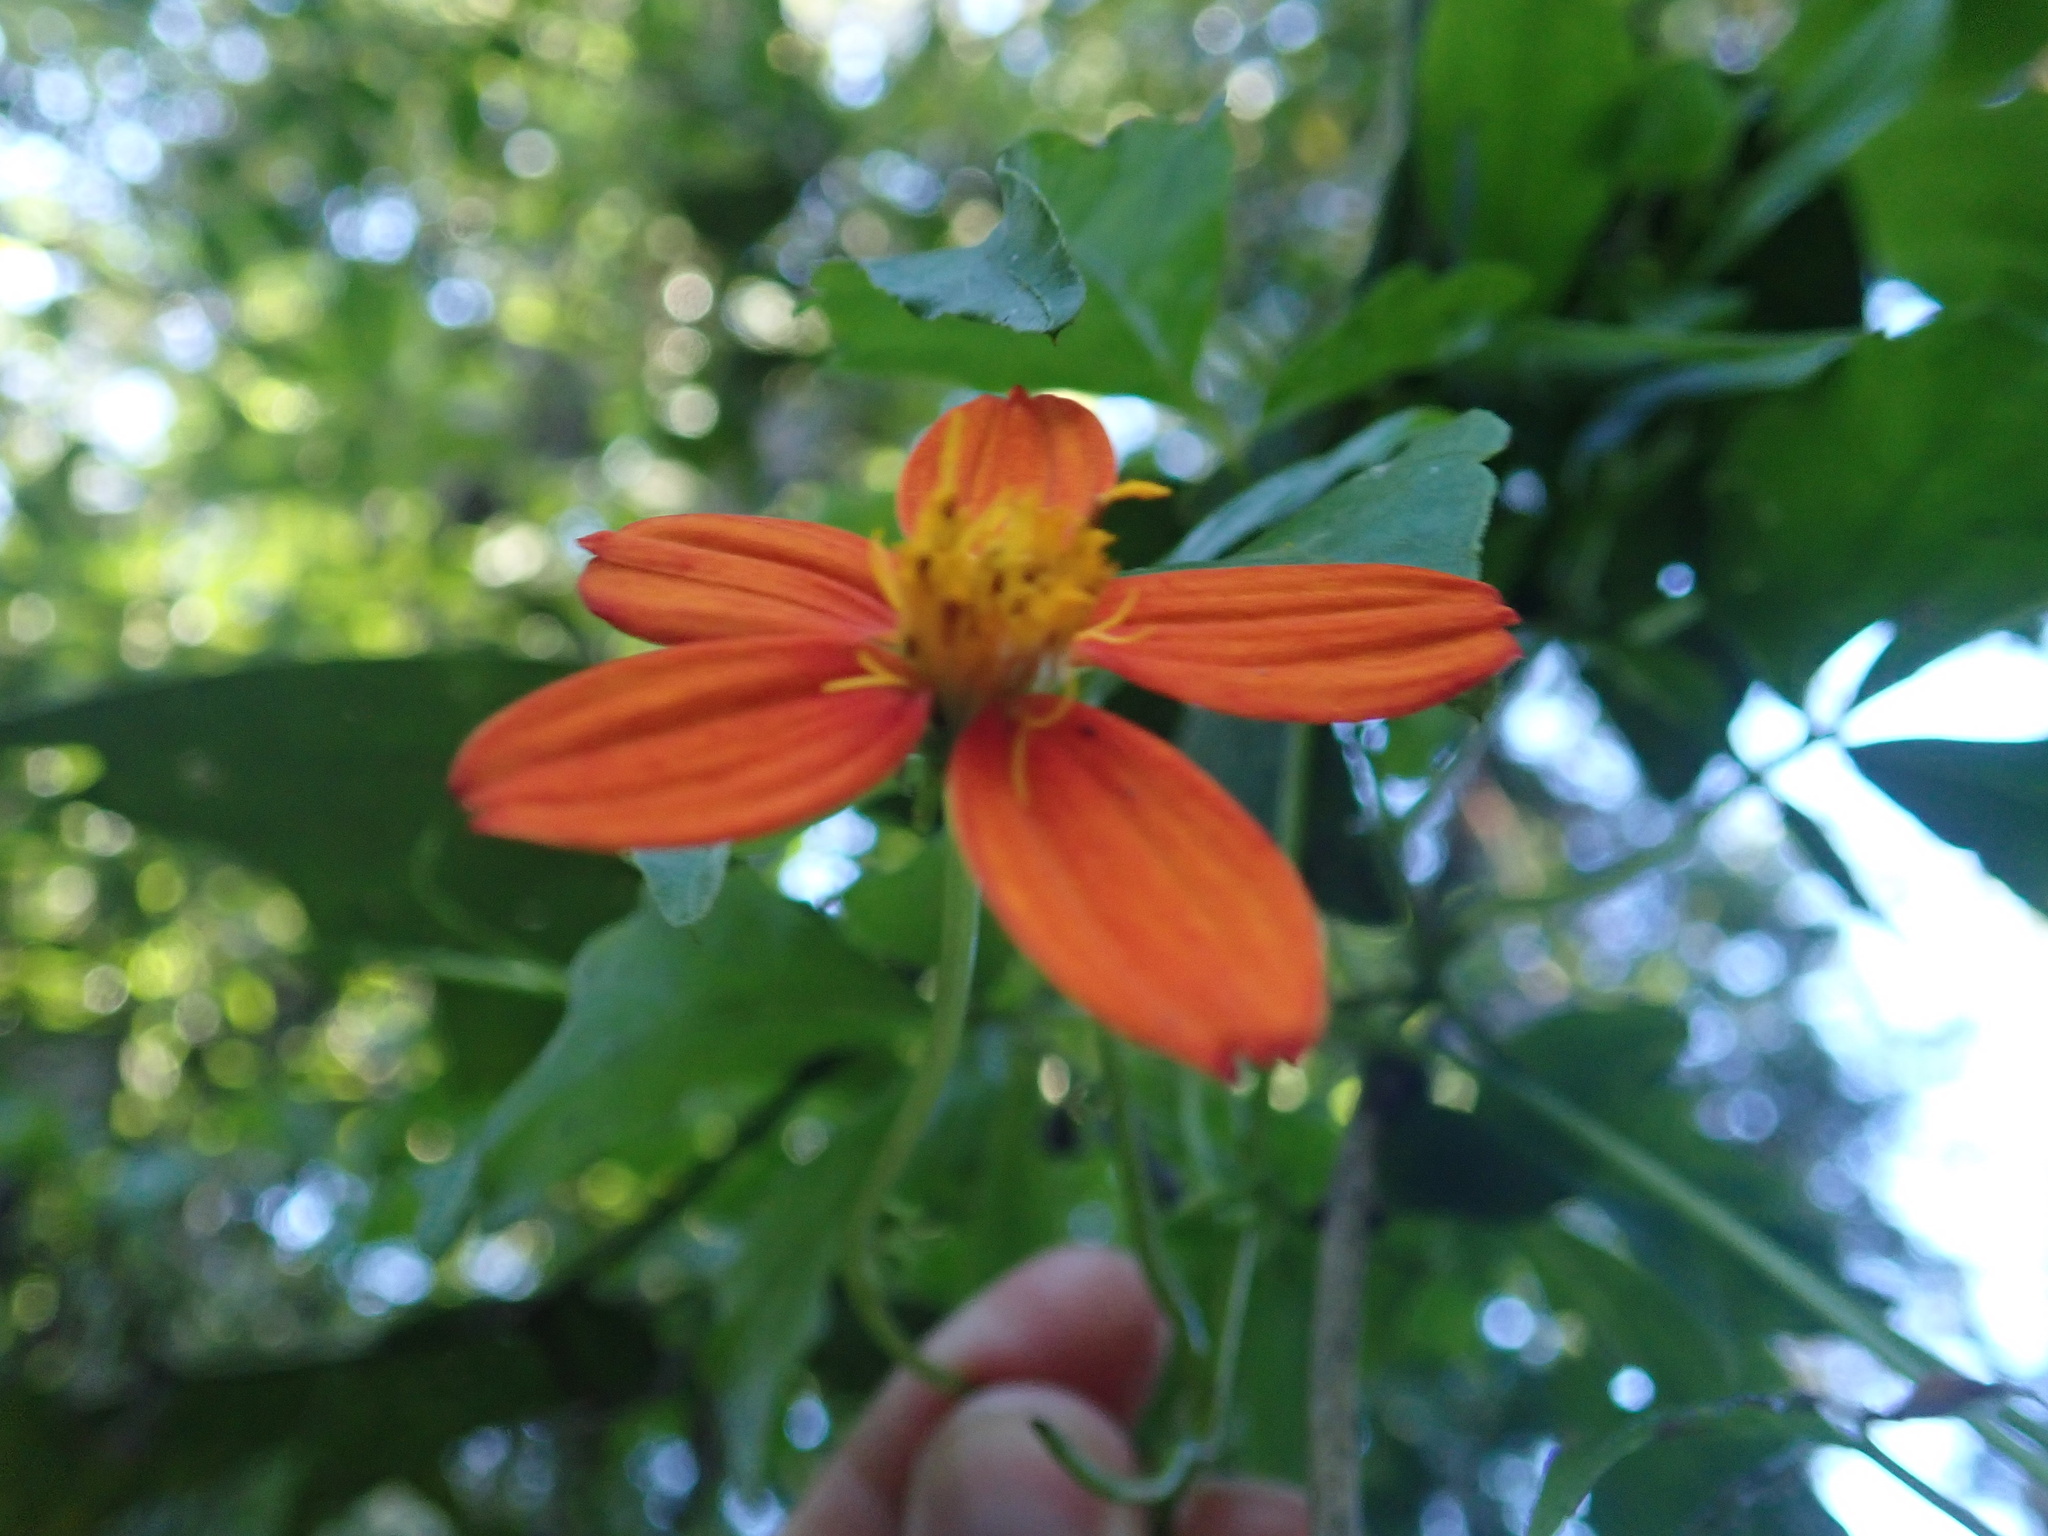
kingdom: Plantae
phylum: Tracheophyta
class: Magnoliopsida
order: Asterales
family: Asteraceae
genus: Hidalgoa
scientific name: Hidalgoa ternata
